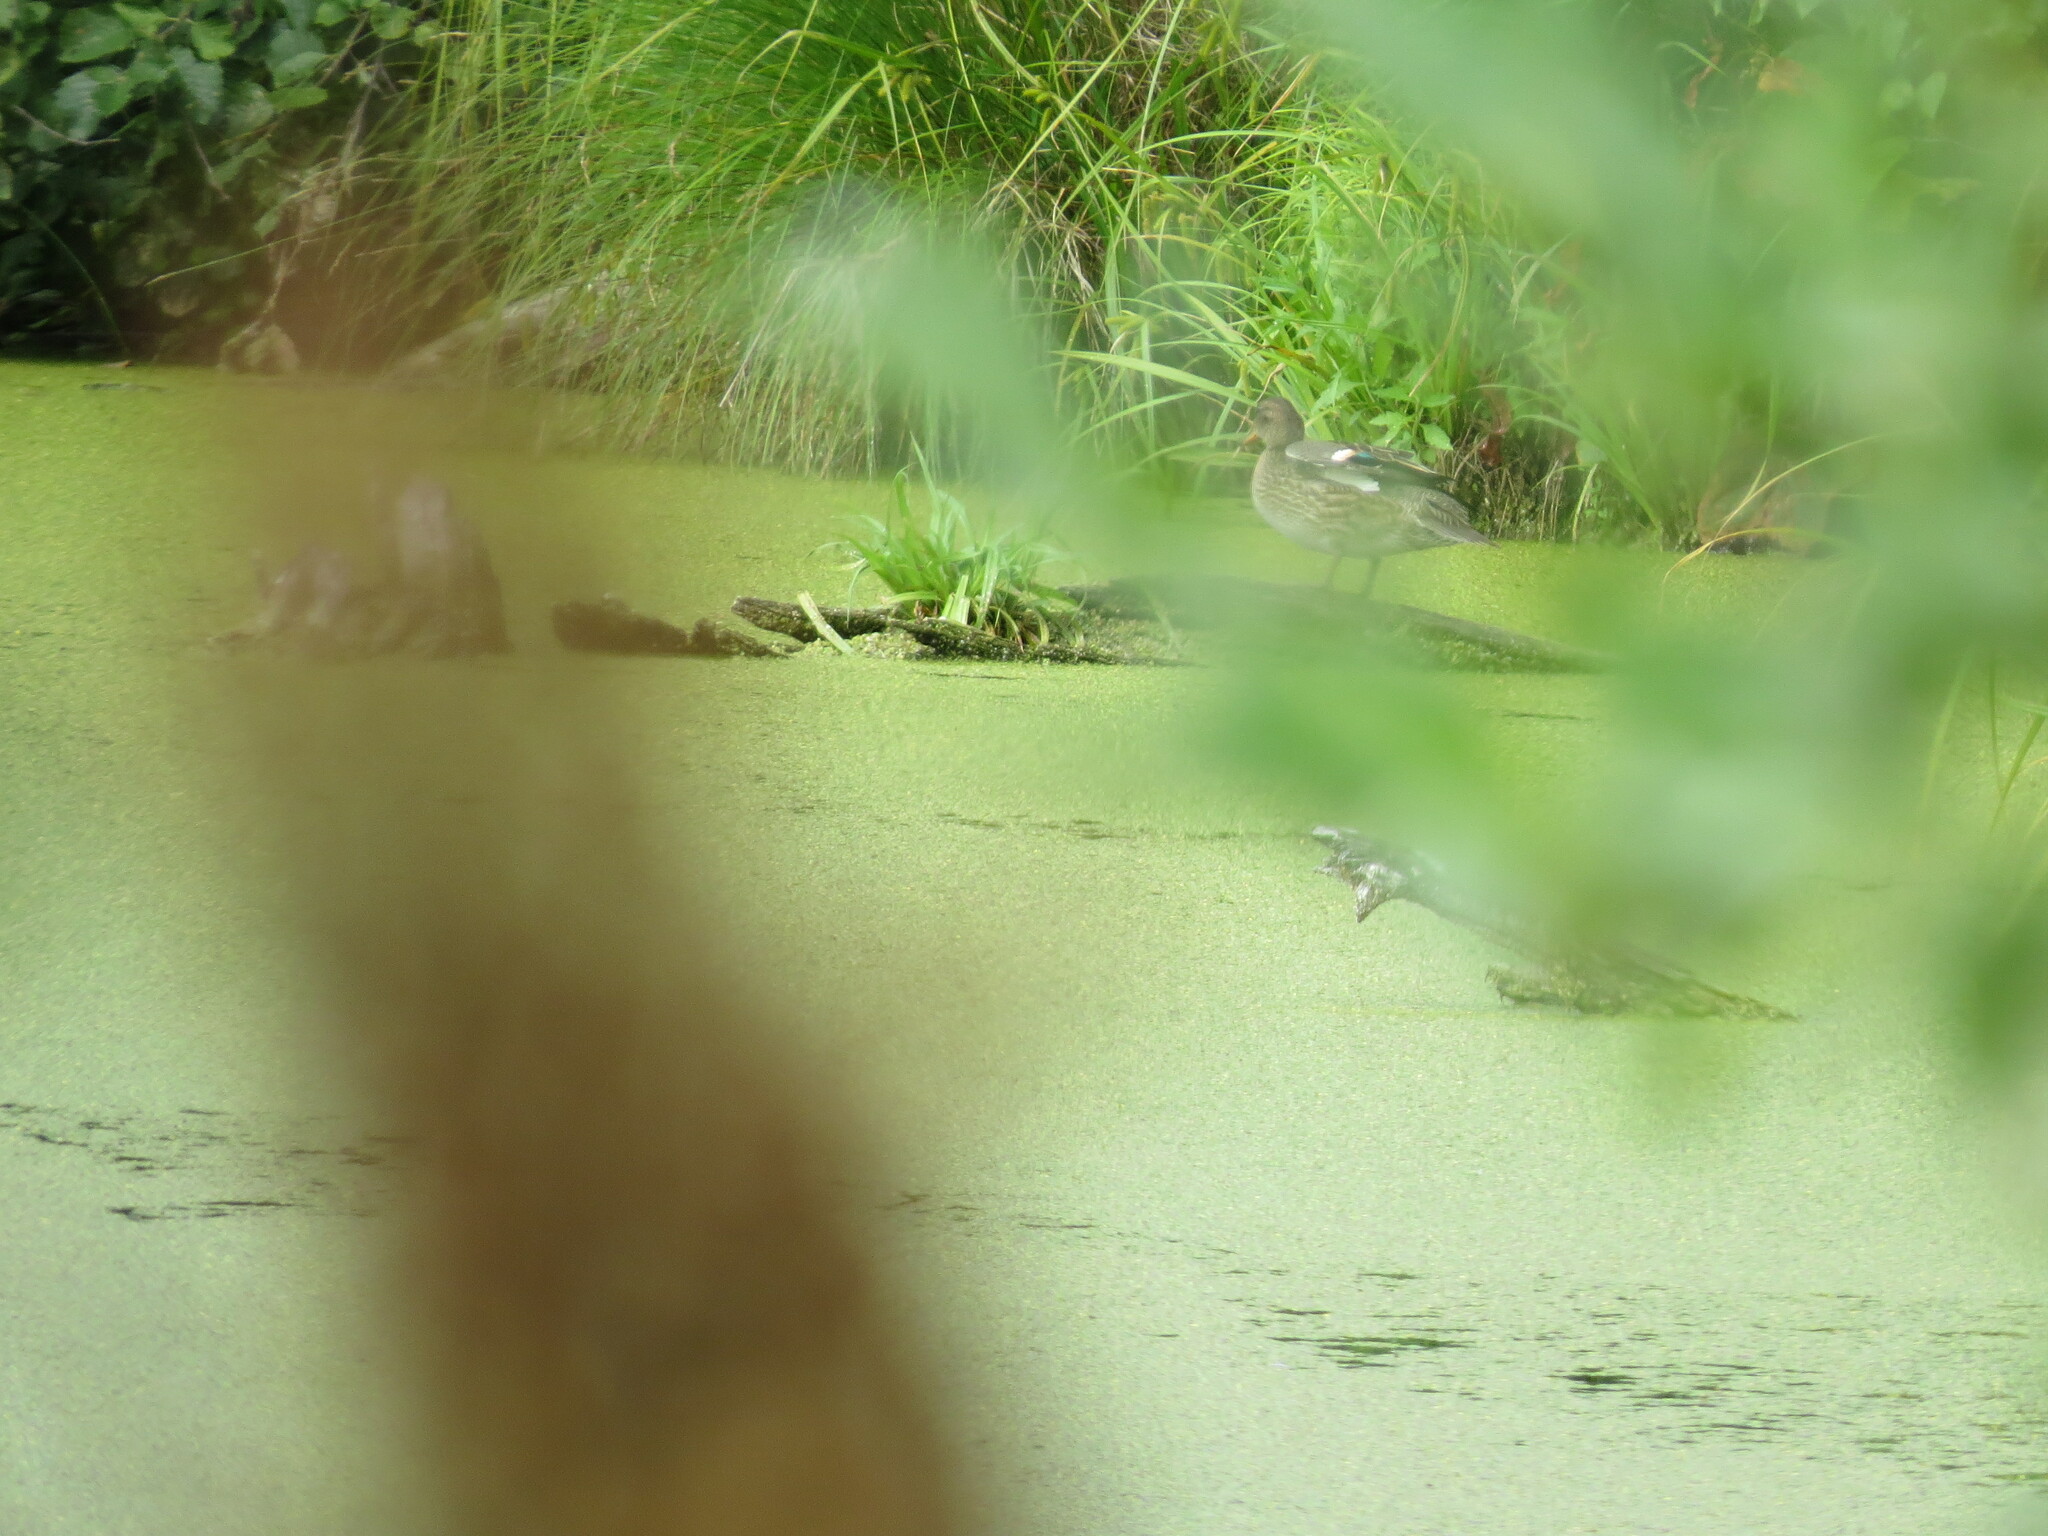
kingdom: Animalia
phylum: Chordata
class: Aves
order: Anseriformes
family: Anatidae
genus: Anas
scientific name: Anas crecca
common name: Eurasian teal
